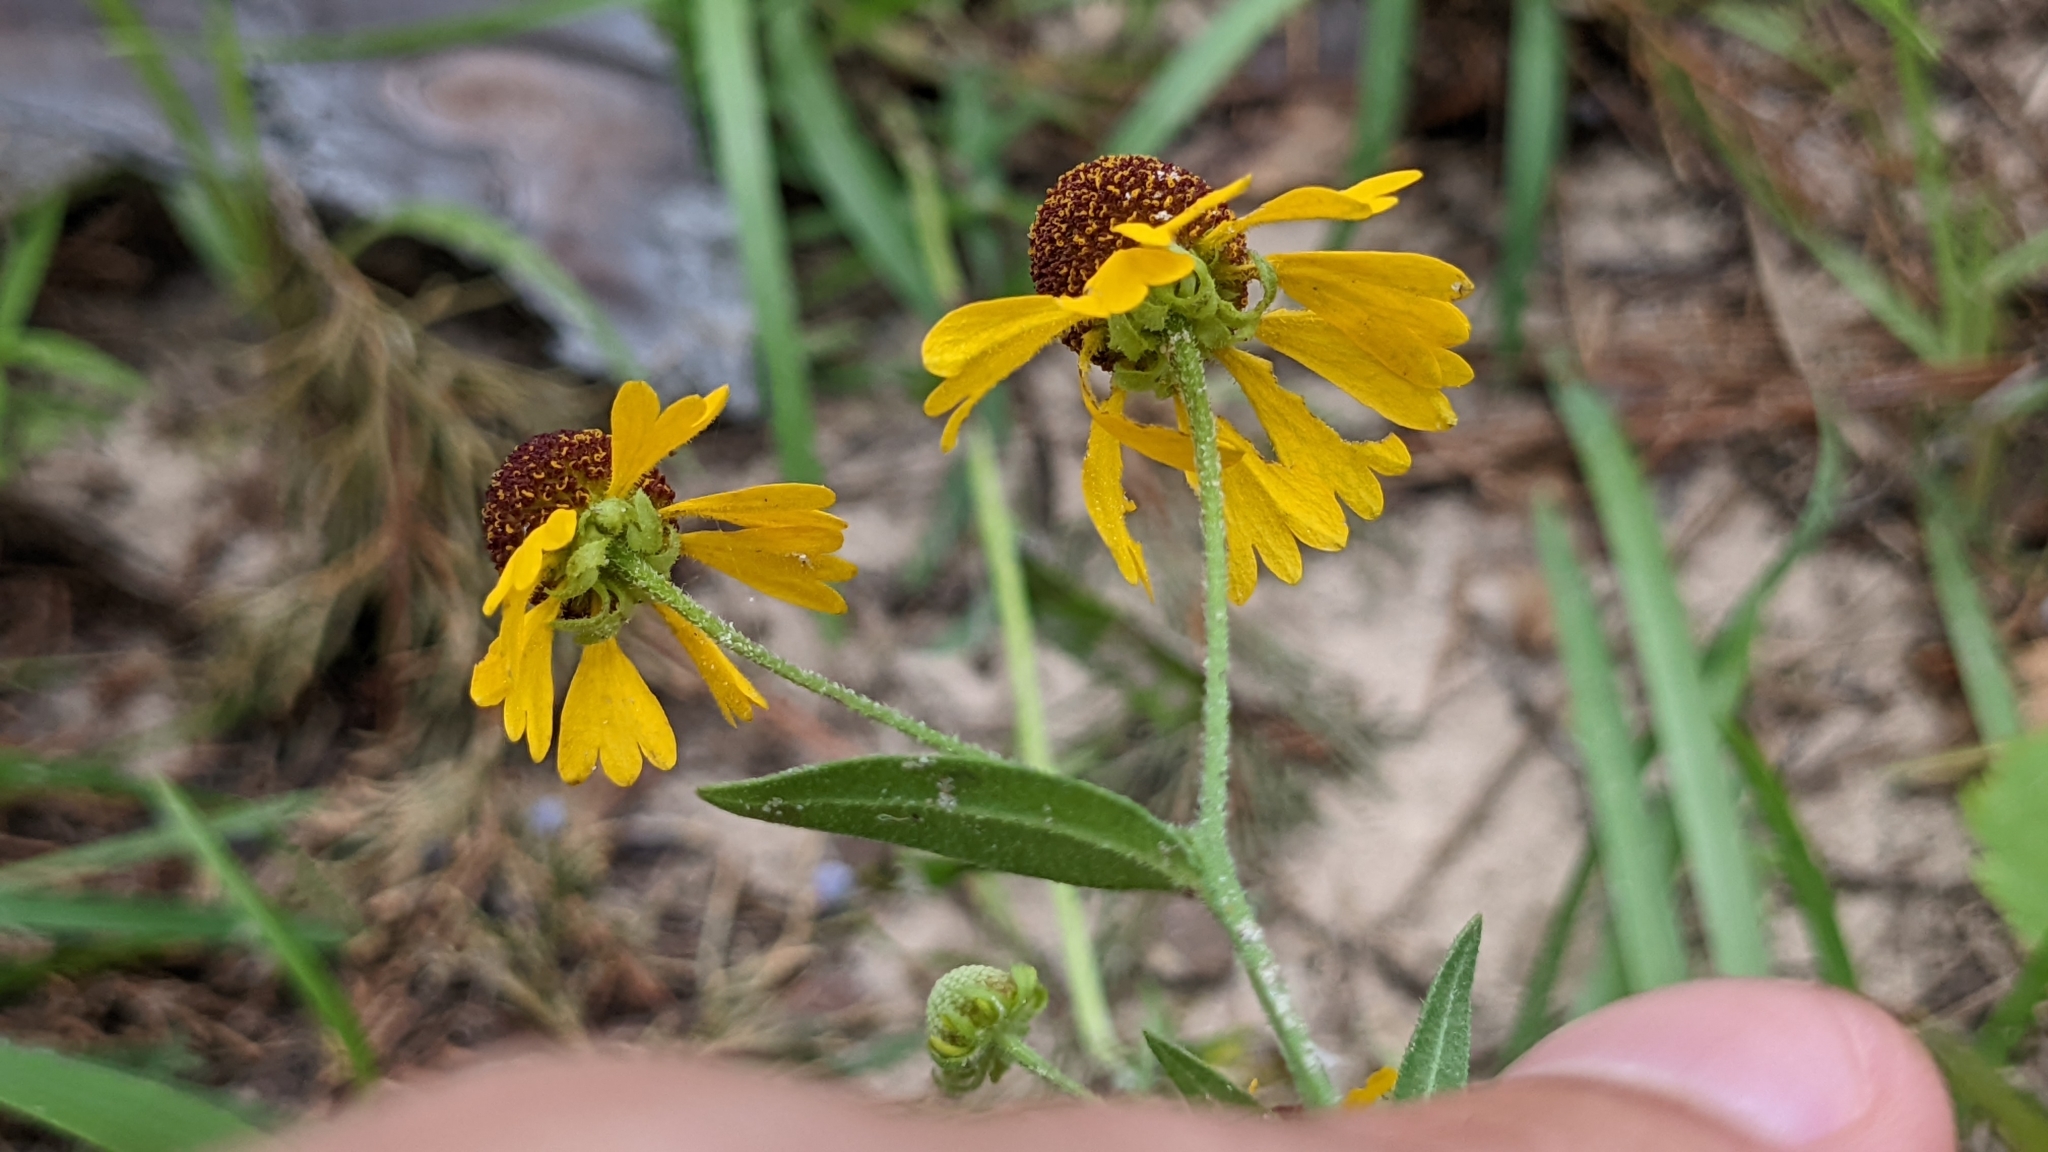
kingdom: Plantae
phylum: Tracheophyta
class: Magnoliopsida
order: Asterales
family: Asteraceae
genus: Helenium
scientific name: Helenium flexuosum
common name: Naked-flowered sneezeweed
